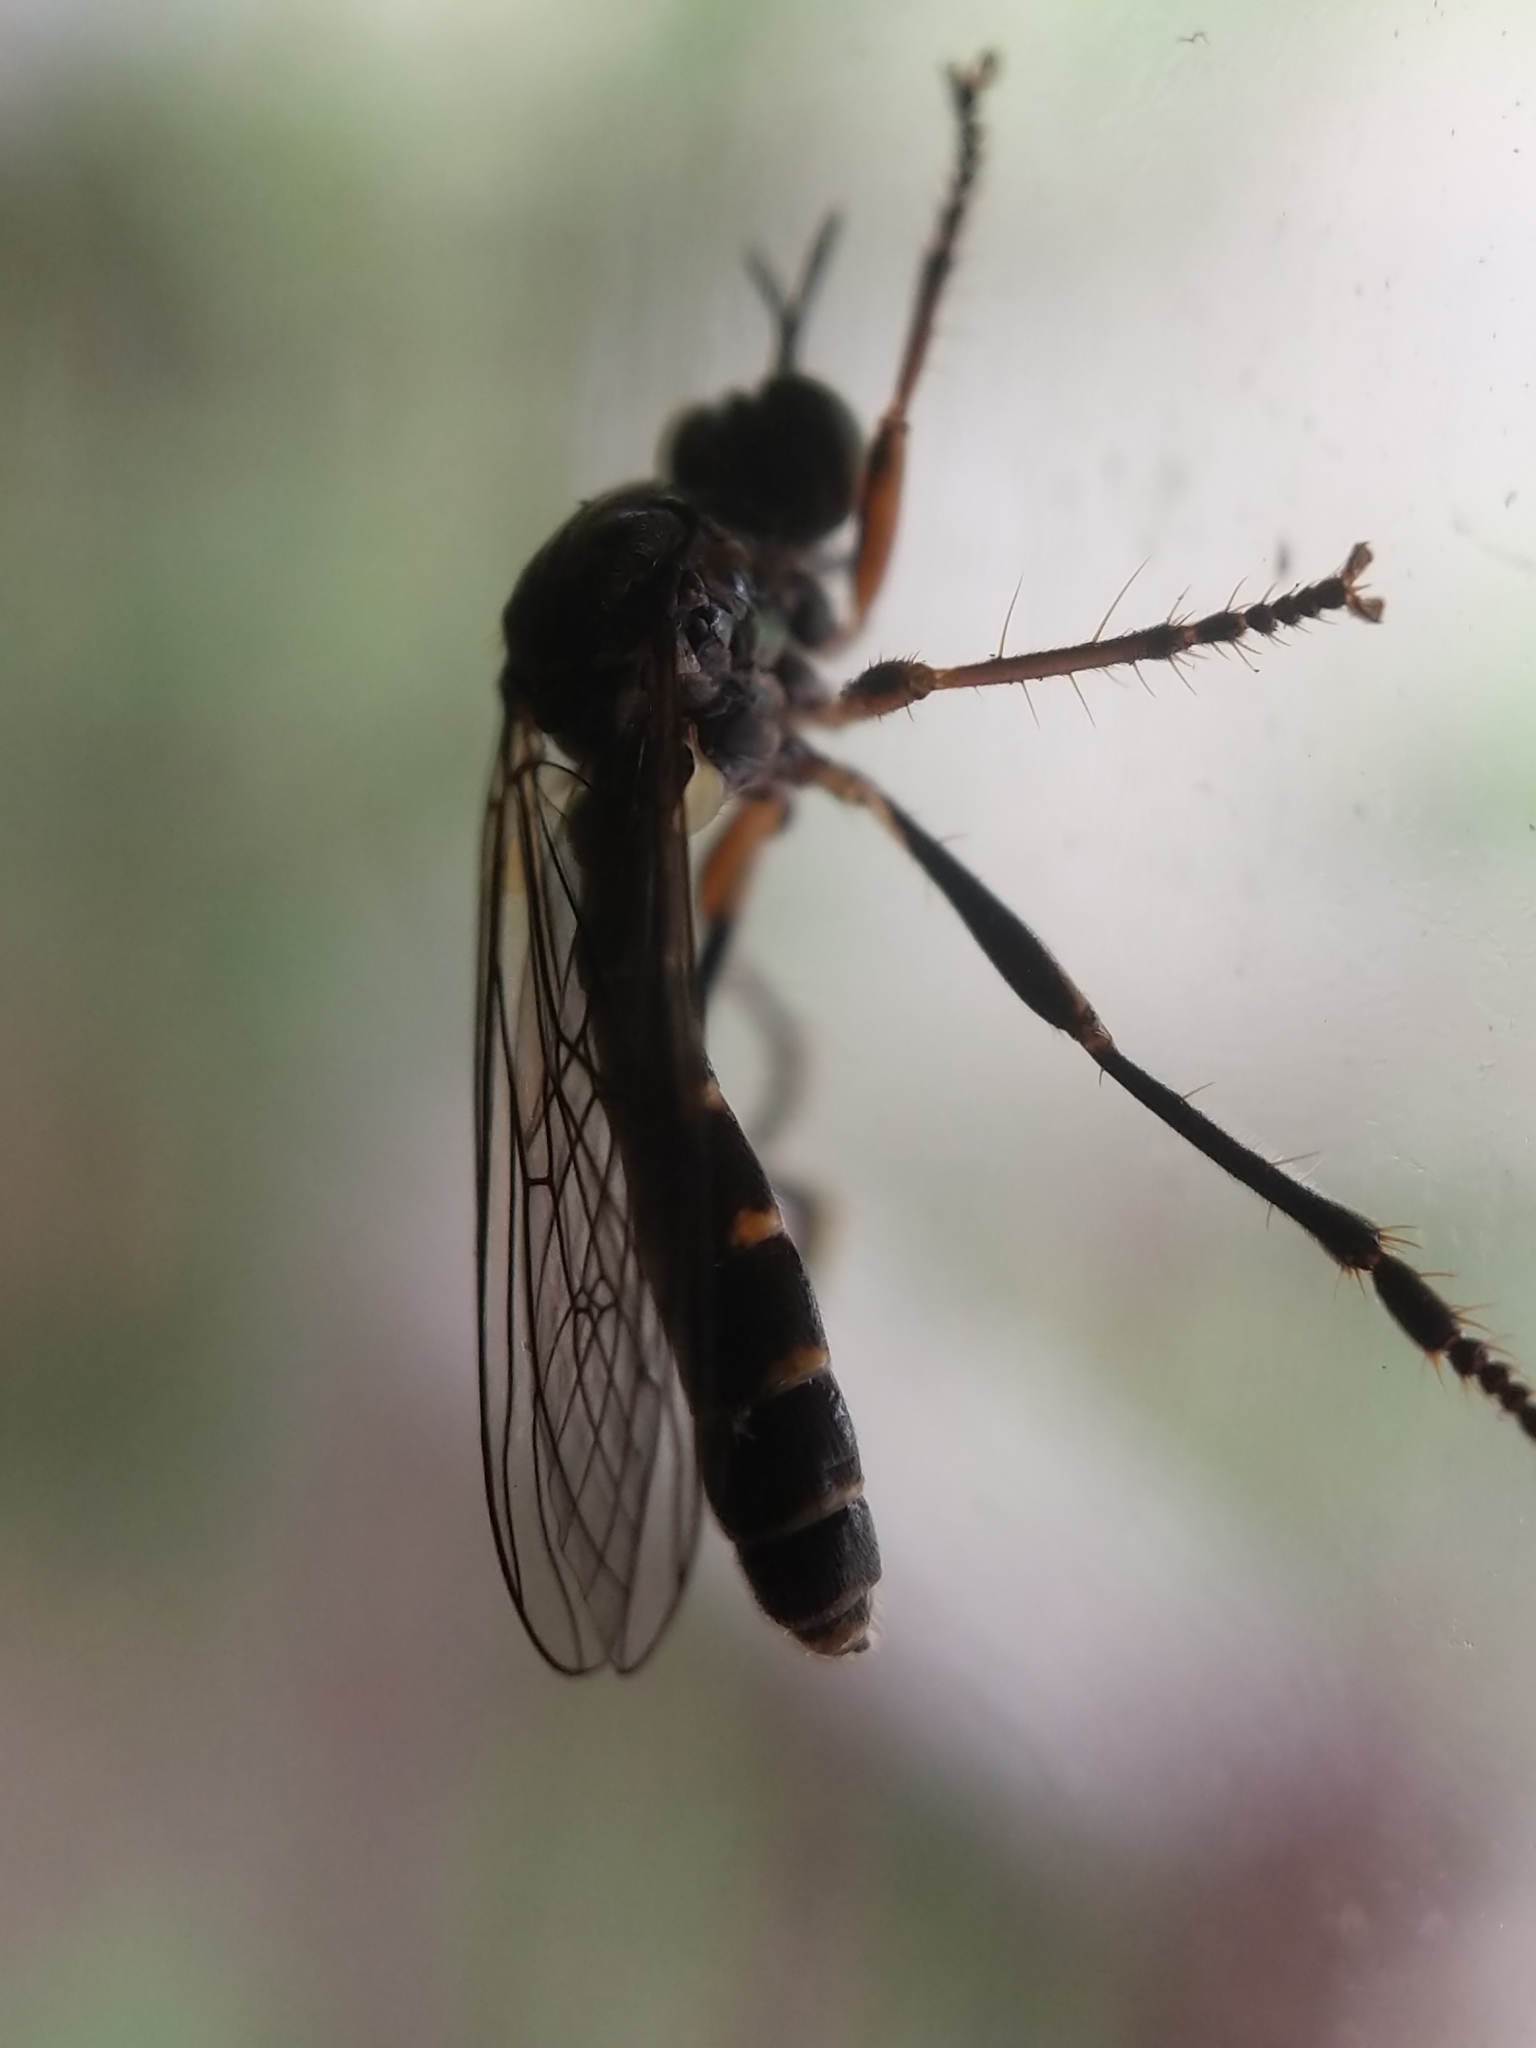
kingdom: Animalia
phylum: Arthropoda
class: Insecta
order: Diptera
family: Asilidae
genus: Dioctria
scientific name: Dioctria hyalipennis
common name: Stripe-legged robberfly
